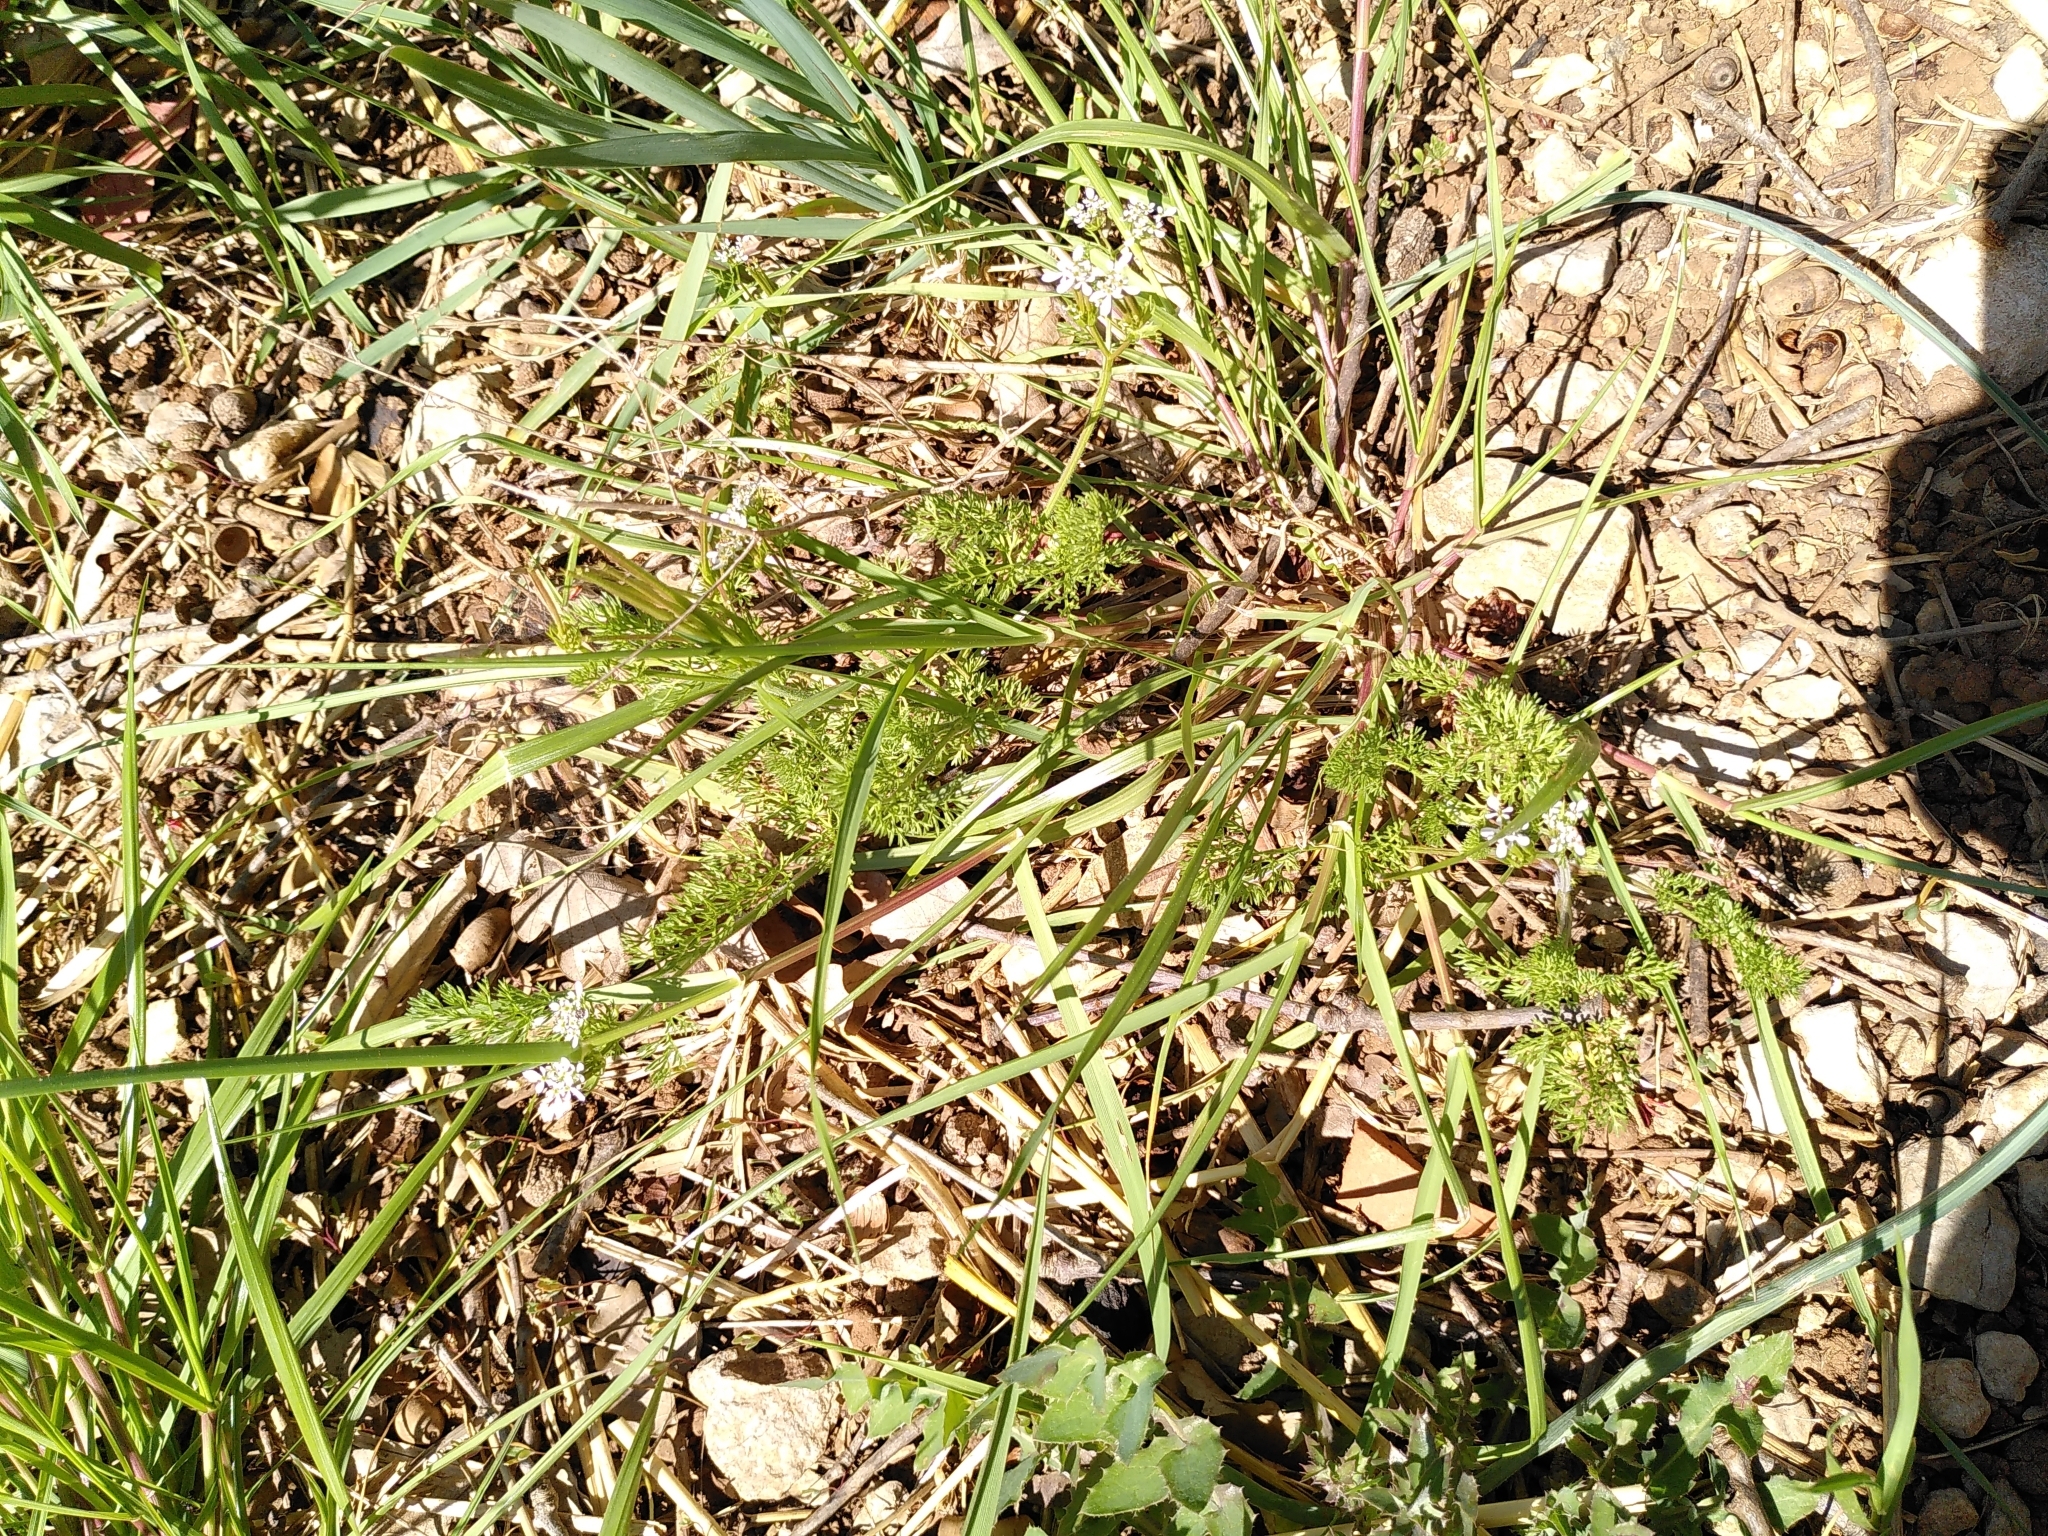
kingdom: Plantae
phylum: Tracheophyta
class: Magnoliopsida
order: Apiales
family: Apiaceae
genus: Scandix
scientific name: Scandix pecten-veneris
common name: Shepherd's-needle
